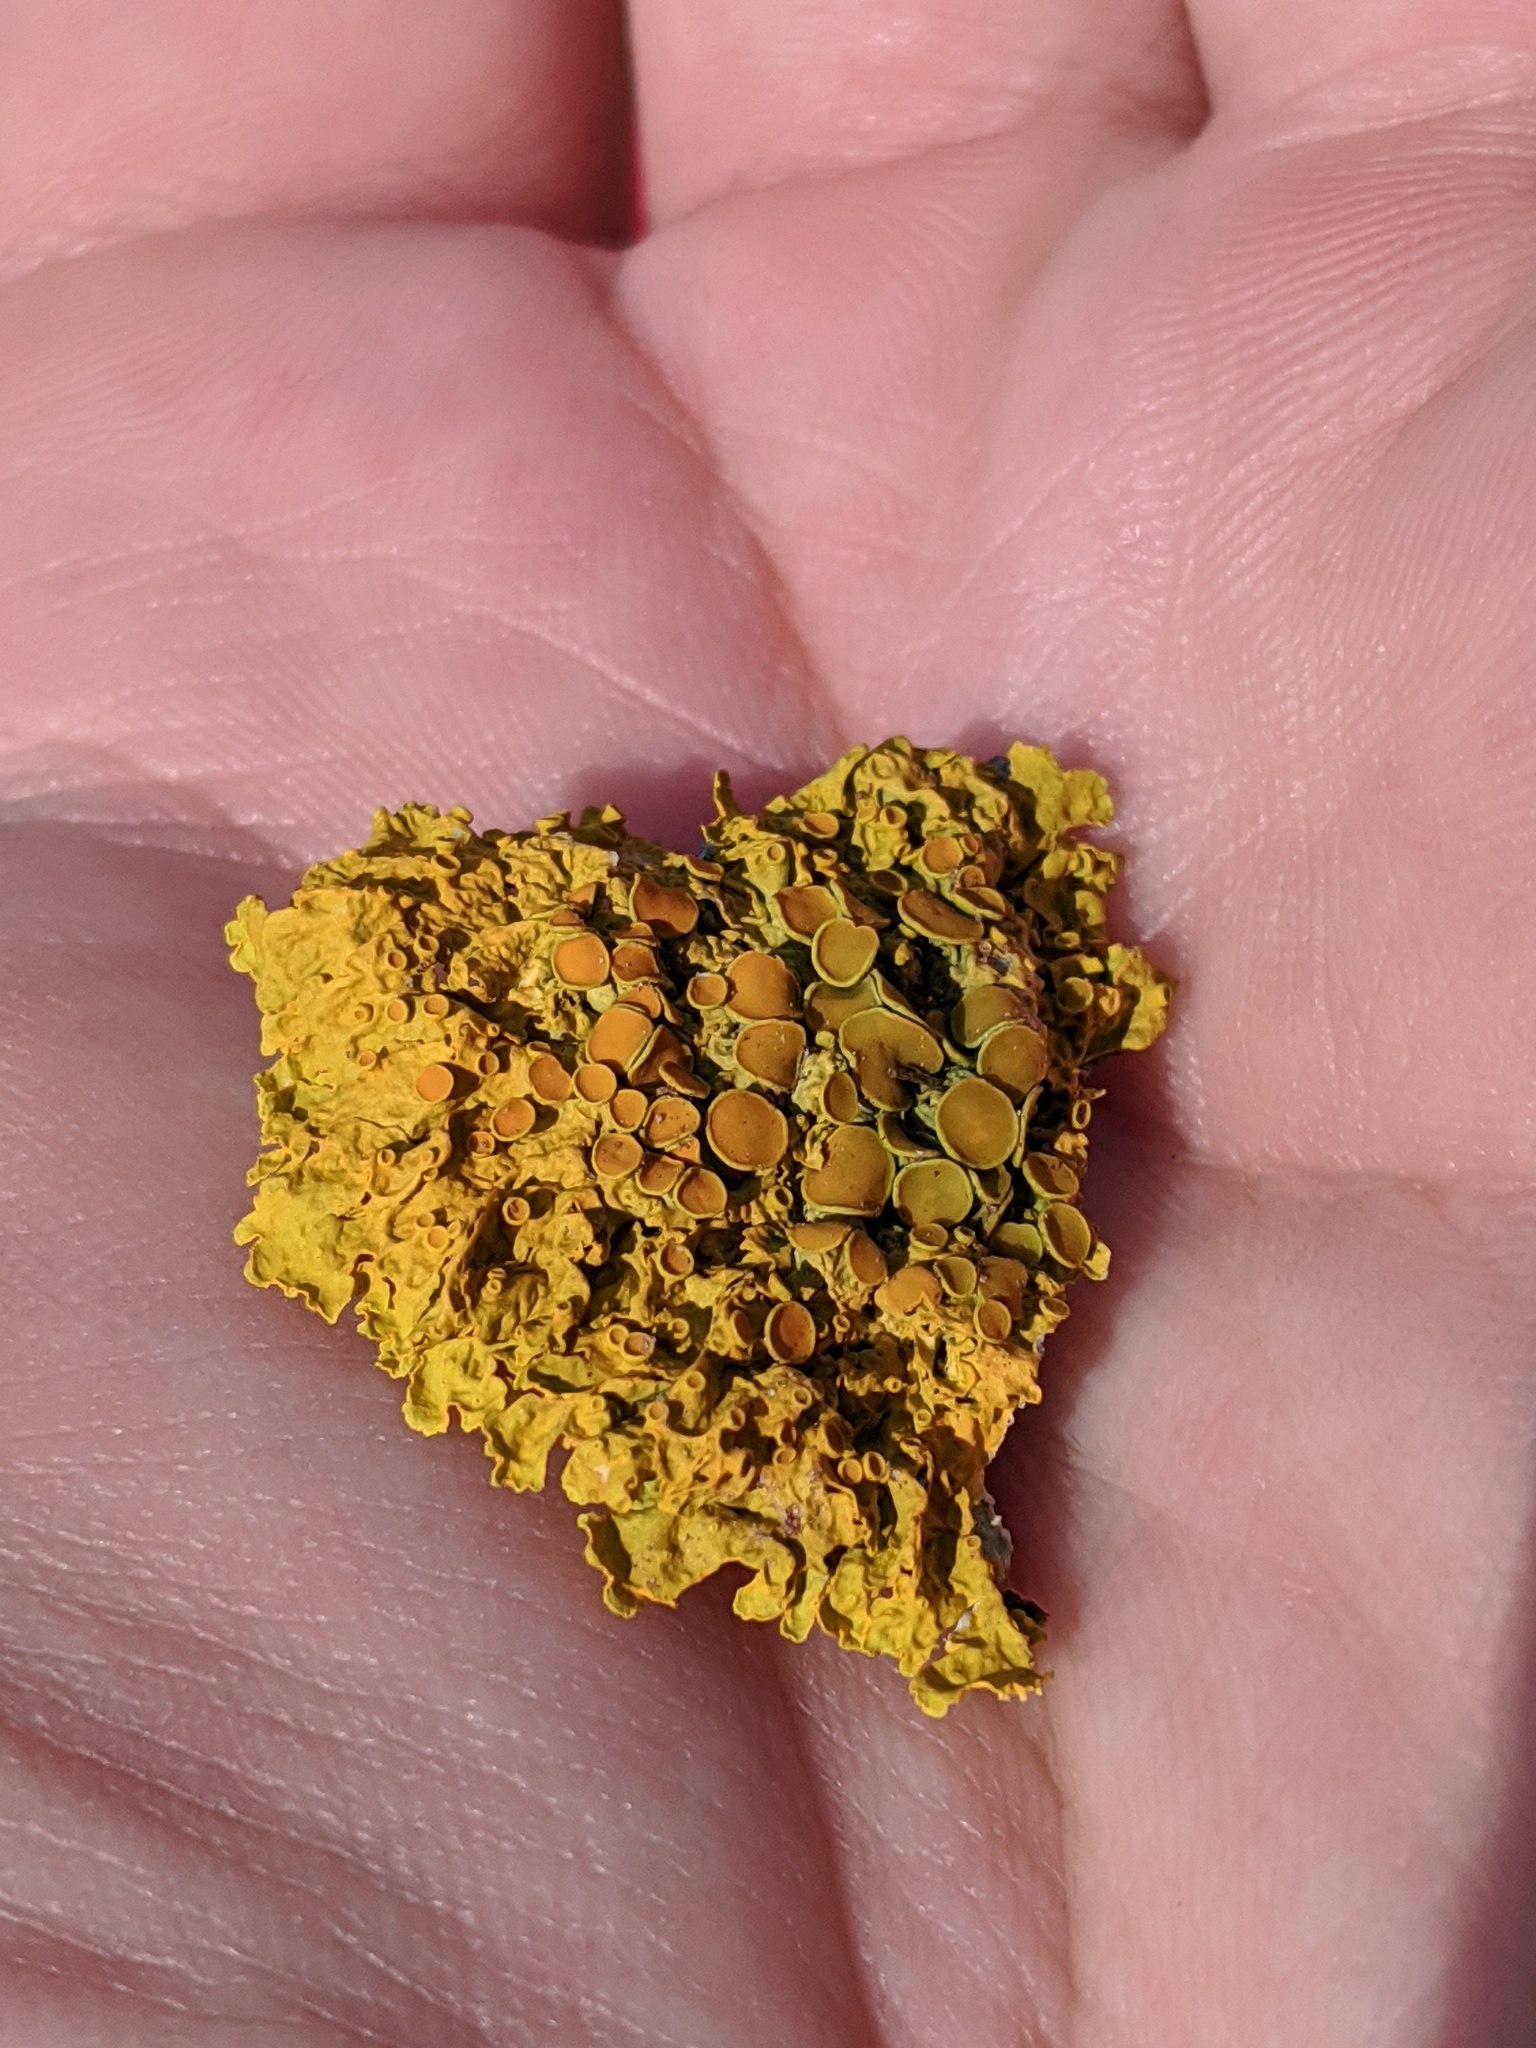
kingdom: Fungi
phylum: Ascomycota
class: Lecanoromycetes
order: Teloschistales
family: Teloschistaceae
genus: Xanthoria
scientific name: Xanthoria parietina
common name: Common orange lichen
